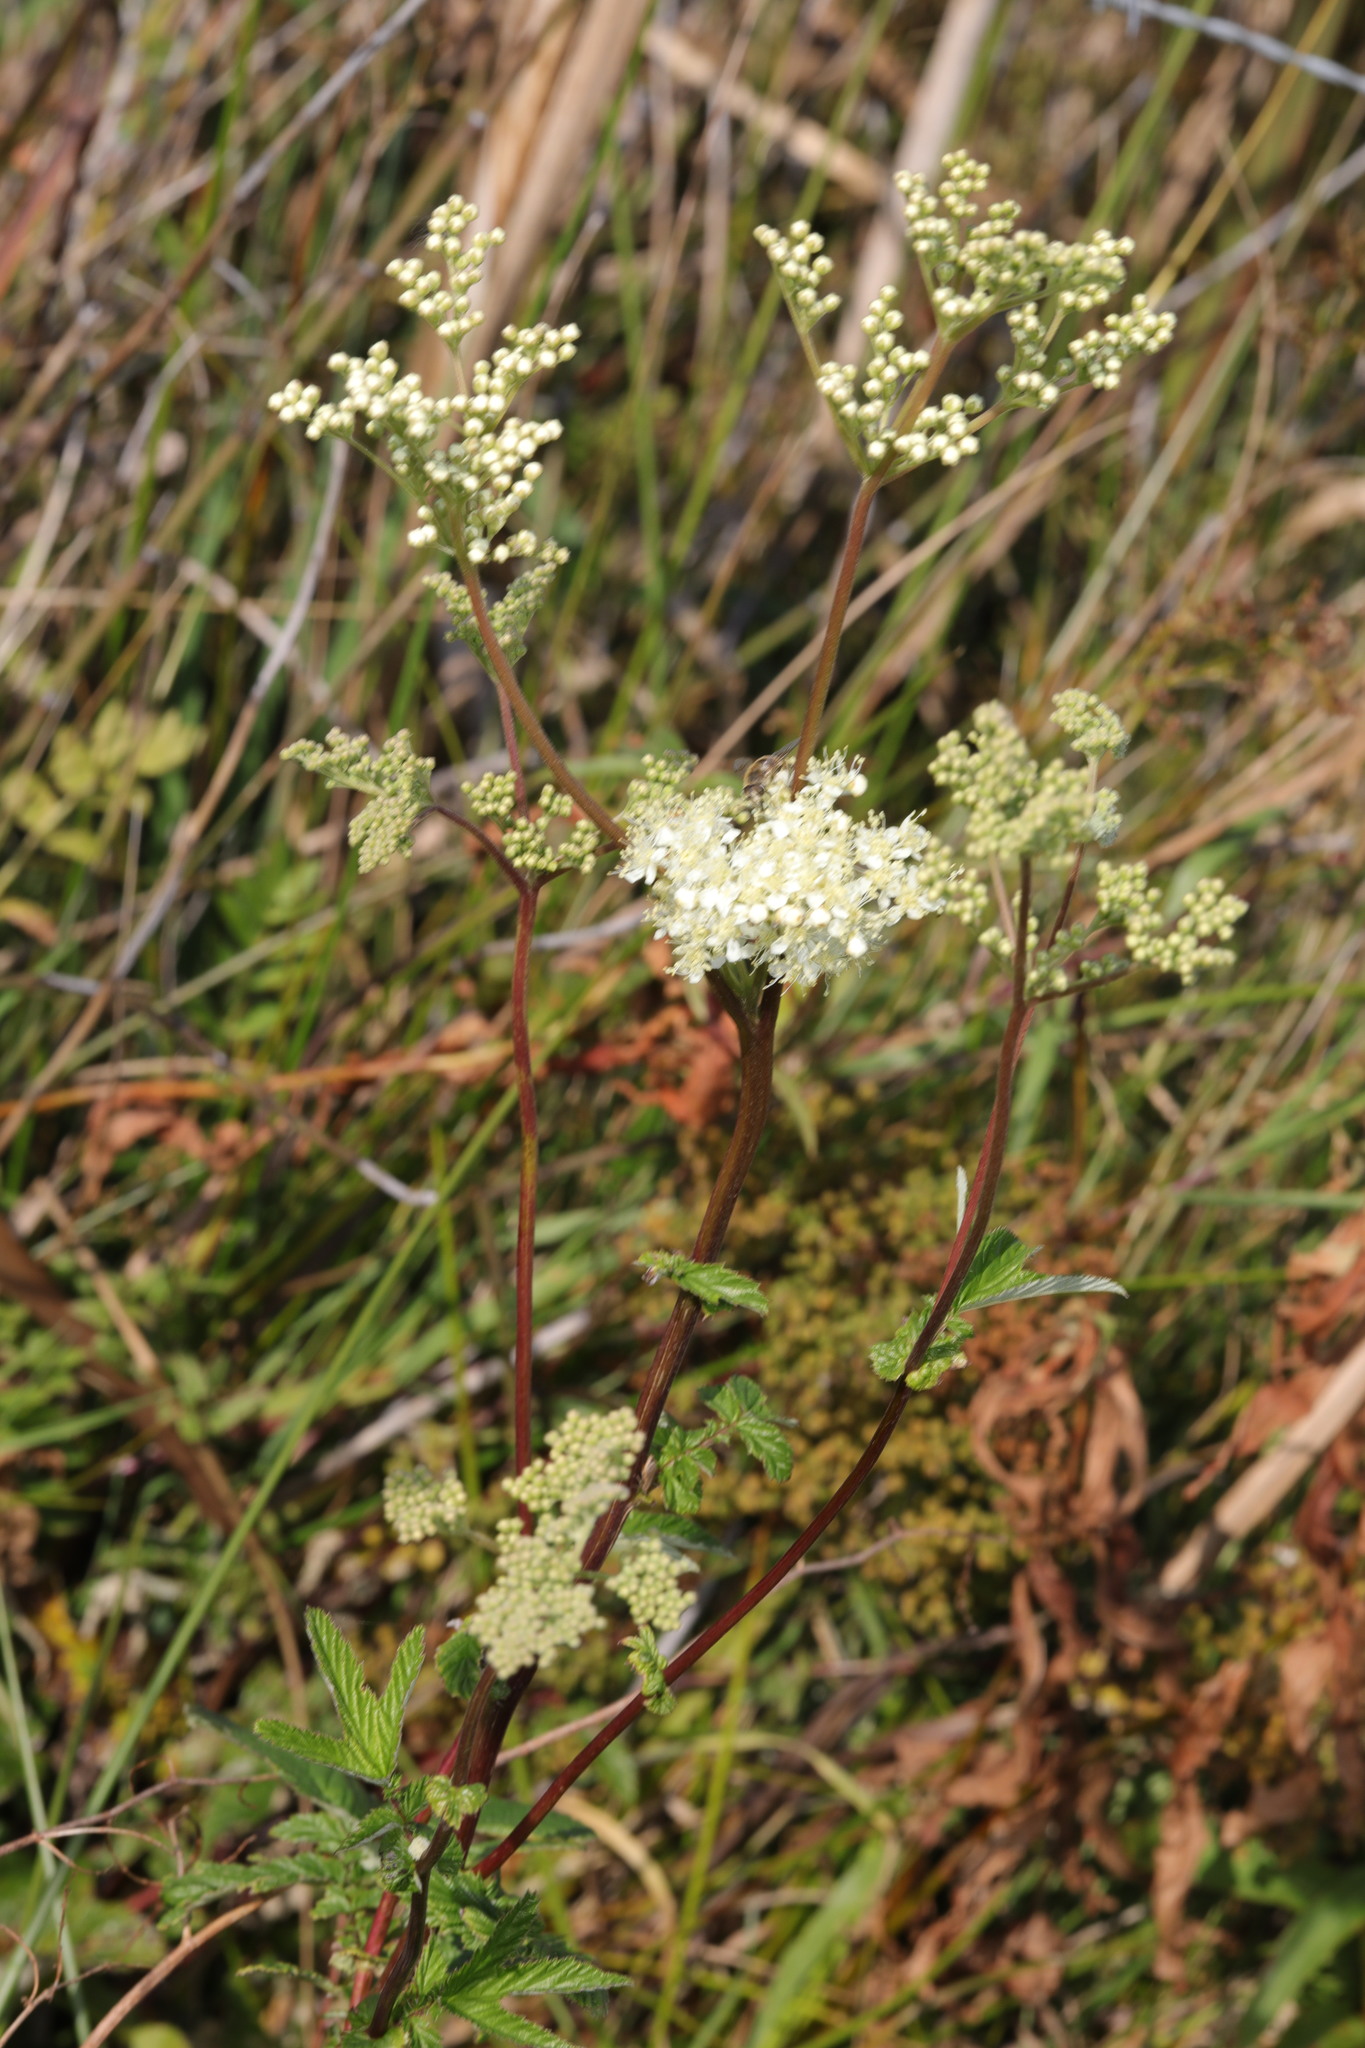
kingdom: Plantae
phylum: Tracheophyta
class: Magnoliopsida
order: Rosales
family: Rosaceae
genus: Filipendula
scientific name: Filipendula ulmaria
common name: Meadowsweet
